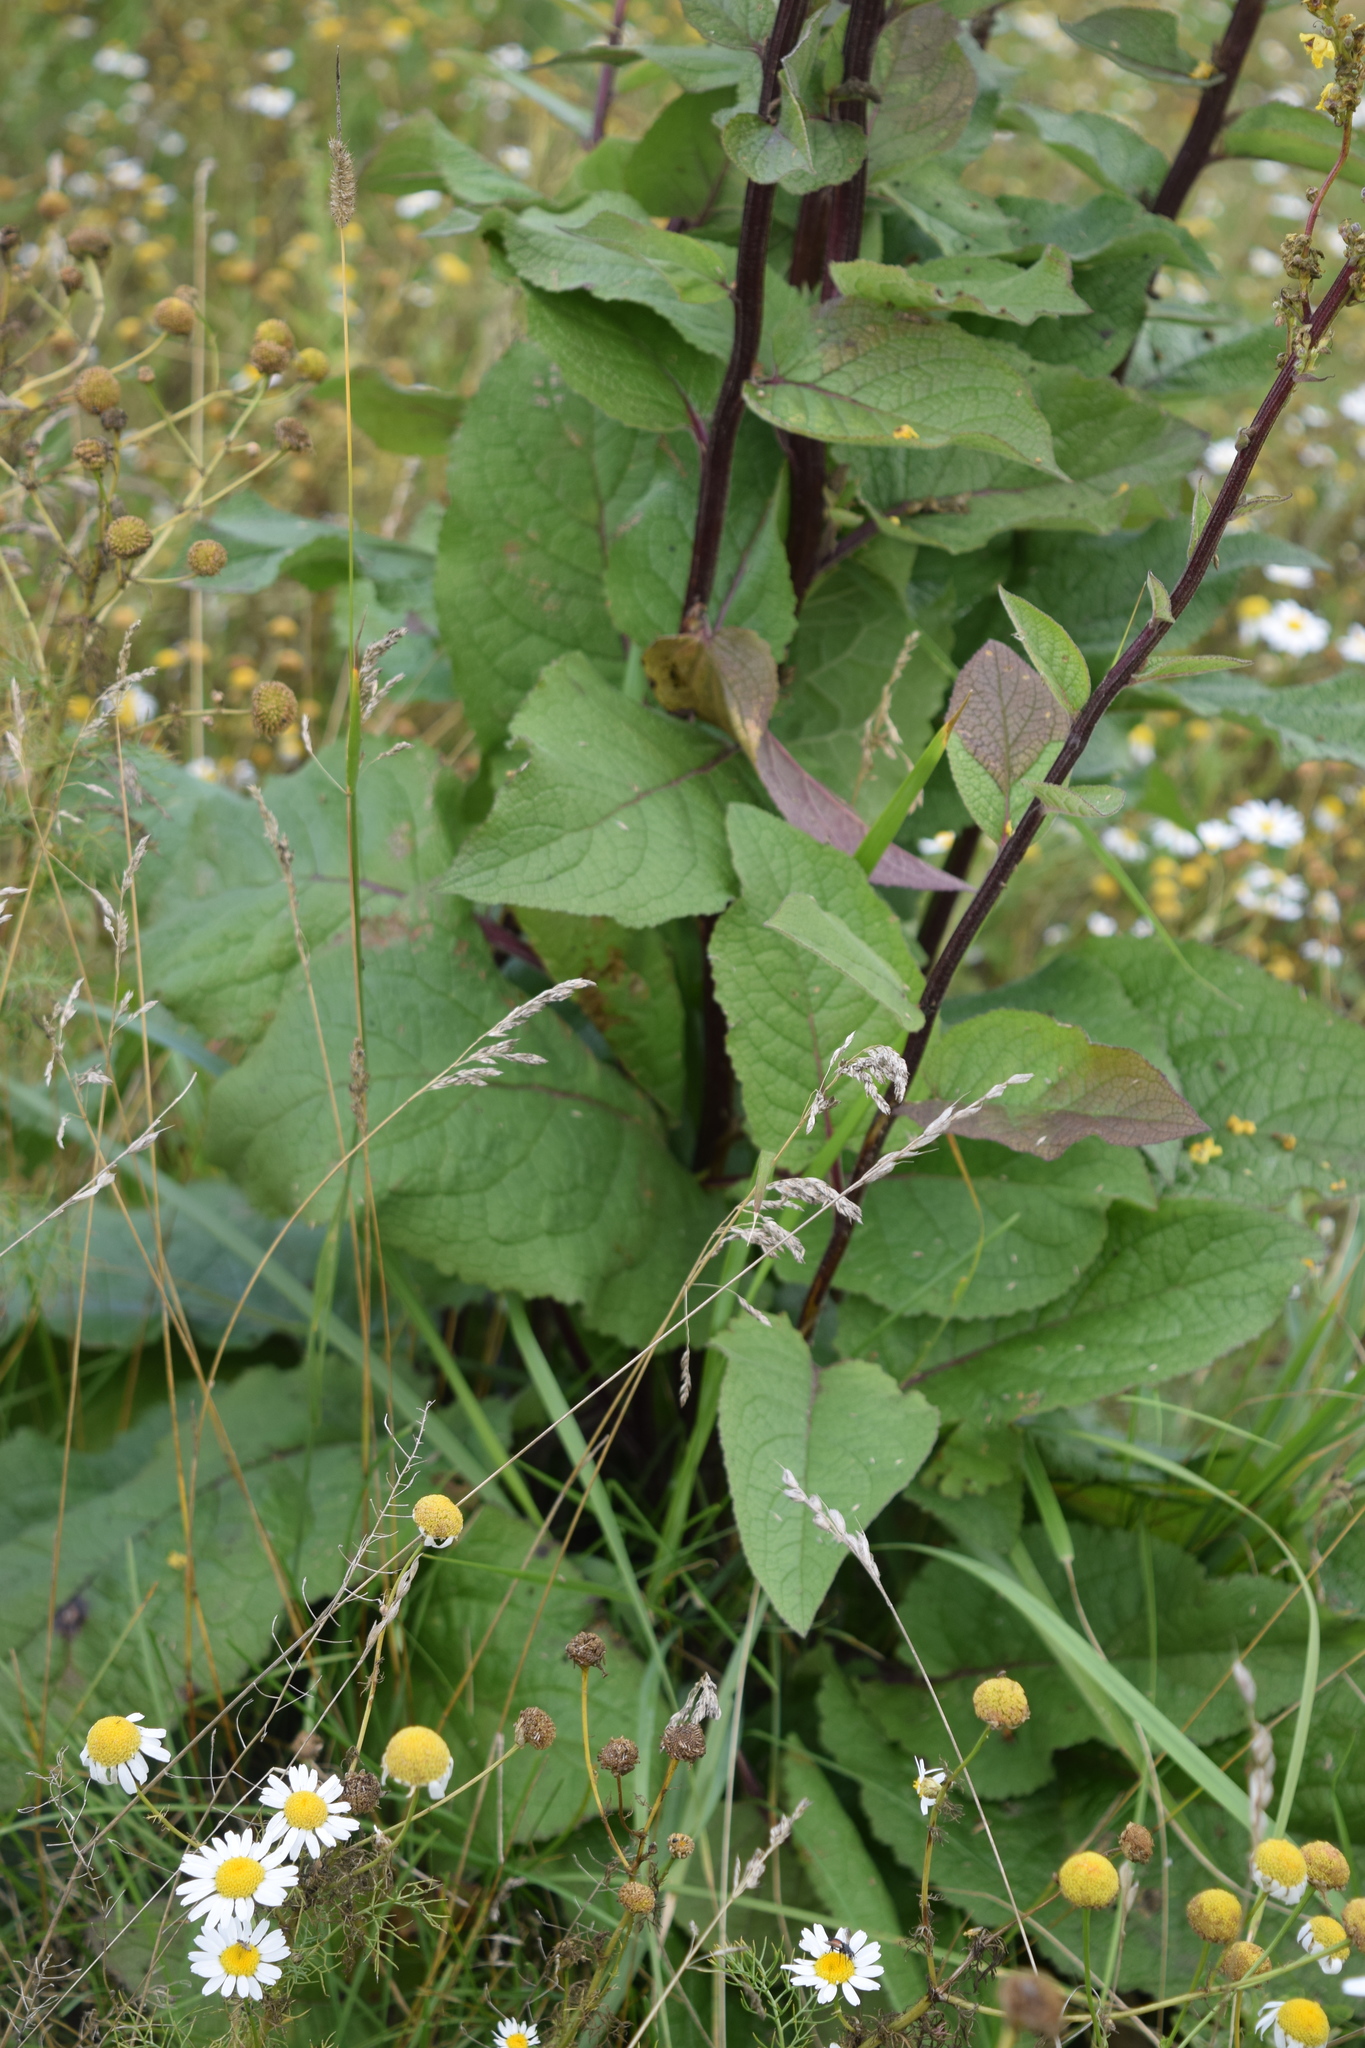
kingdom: Plantae
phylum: Tracheophyta
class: Magnoliopsida
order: Lamiales
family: Scrophulariaceae
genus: Verbascum
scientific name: Verbascum nigrum
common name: Dark mullein
